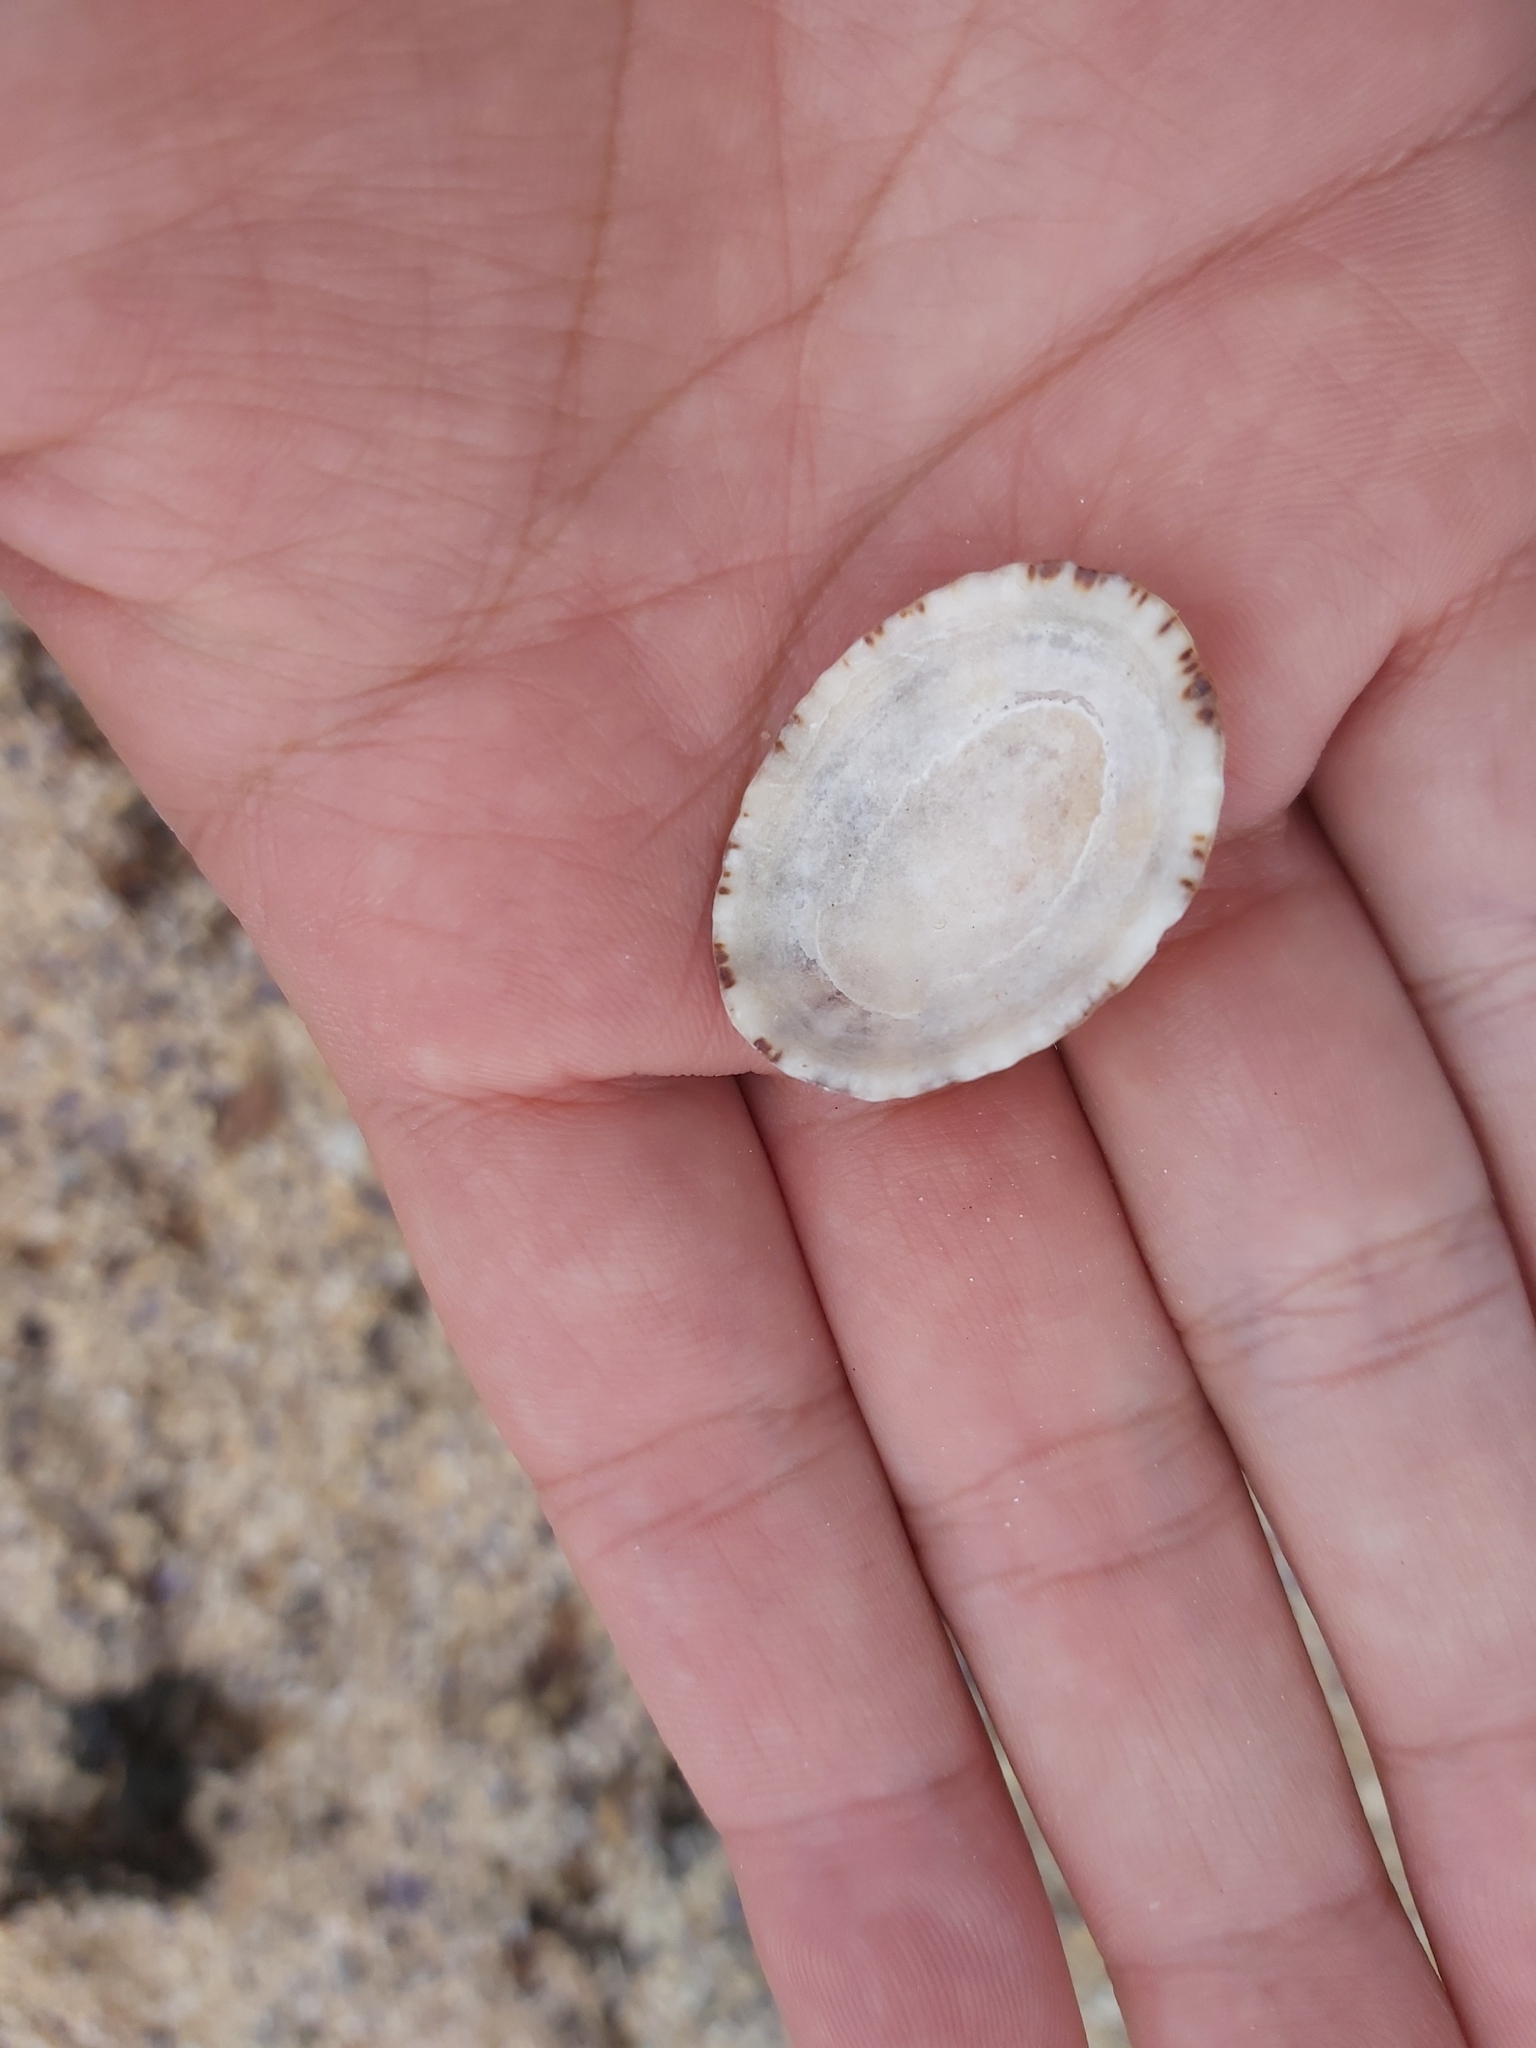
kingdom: Animalia
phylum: Mollusca
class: Gastropoda
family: Nacellidae
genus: Cellana
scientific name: Cellana tramoserica
